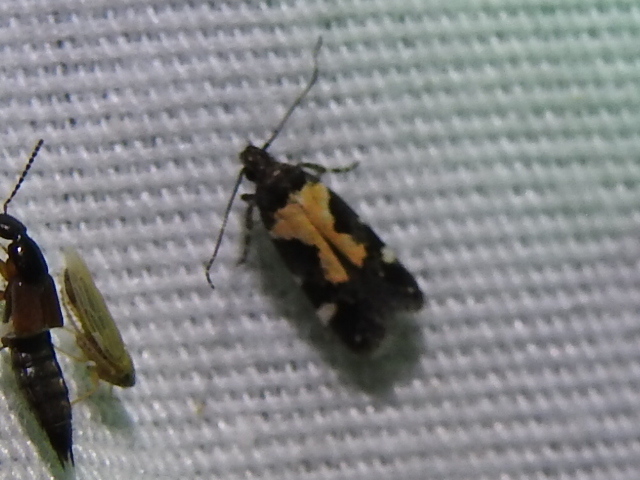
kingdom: Animalia
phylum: Arthropoda
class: Insecta
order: Lepidoptera
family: Gelechiidae
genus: Stegasta
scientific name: Stegasta bosqueella
